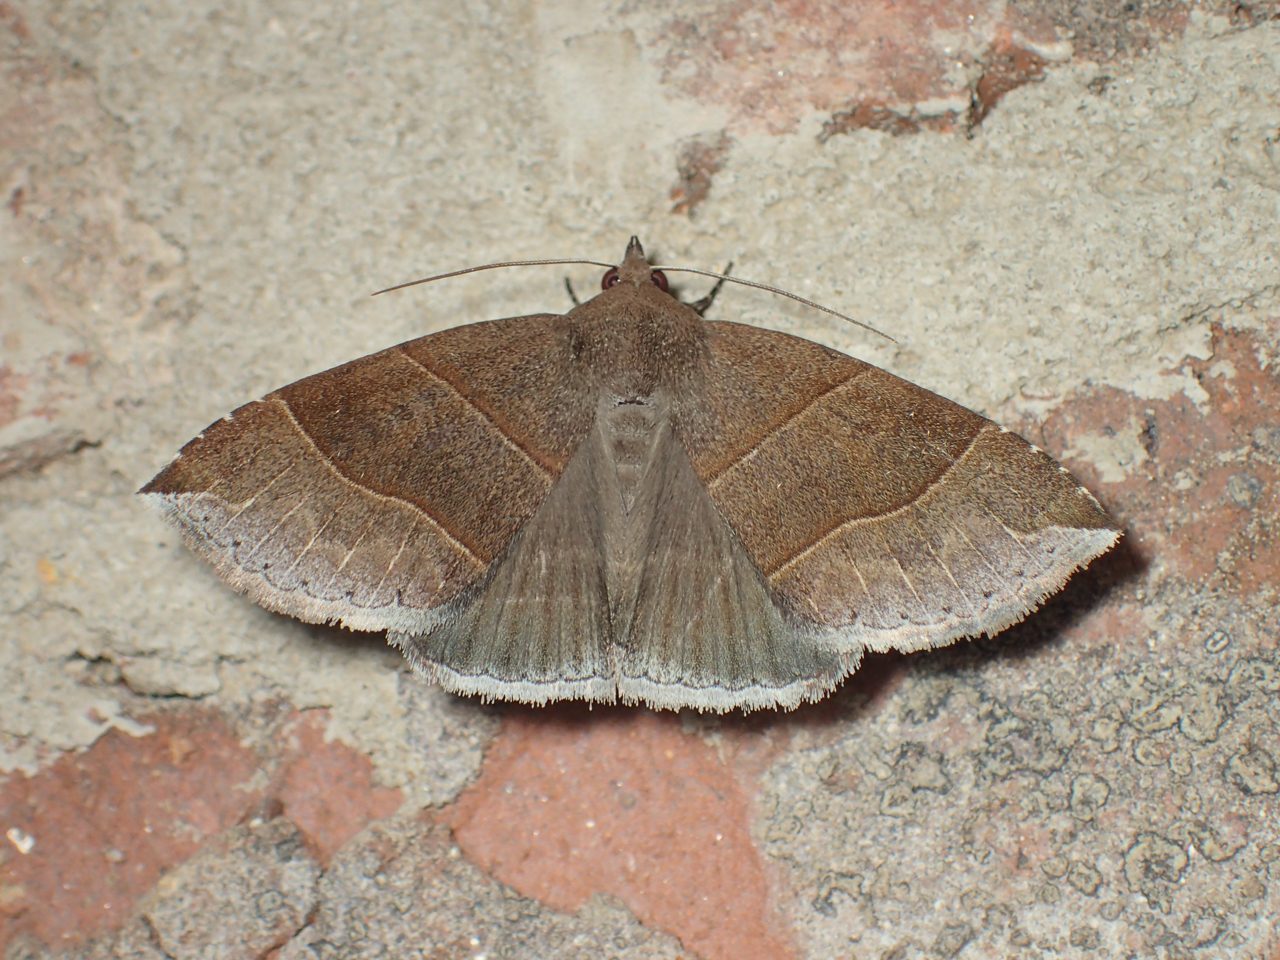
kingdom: Animalia
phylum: Arthropoda
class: Insecta
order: Lepidoptera
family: Erebidae
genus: Parallelia
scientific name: Parallelia bistriaris
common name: Maple looper moth
